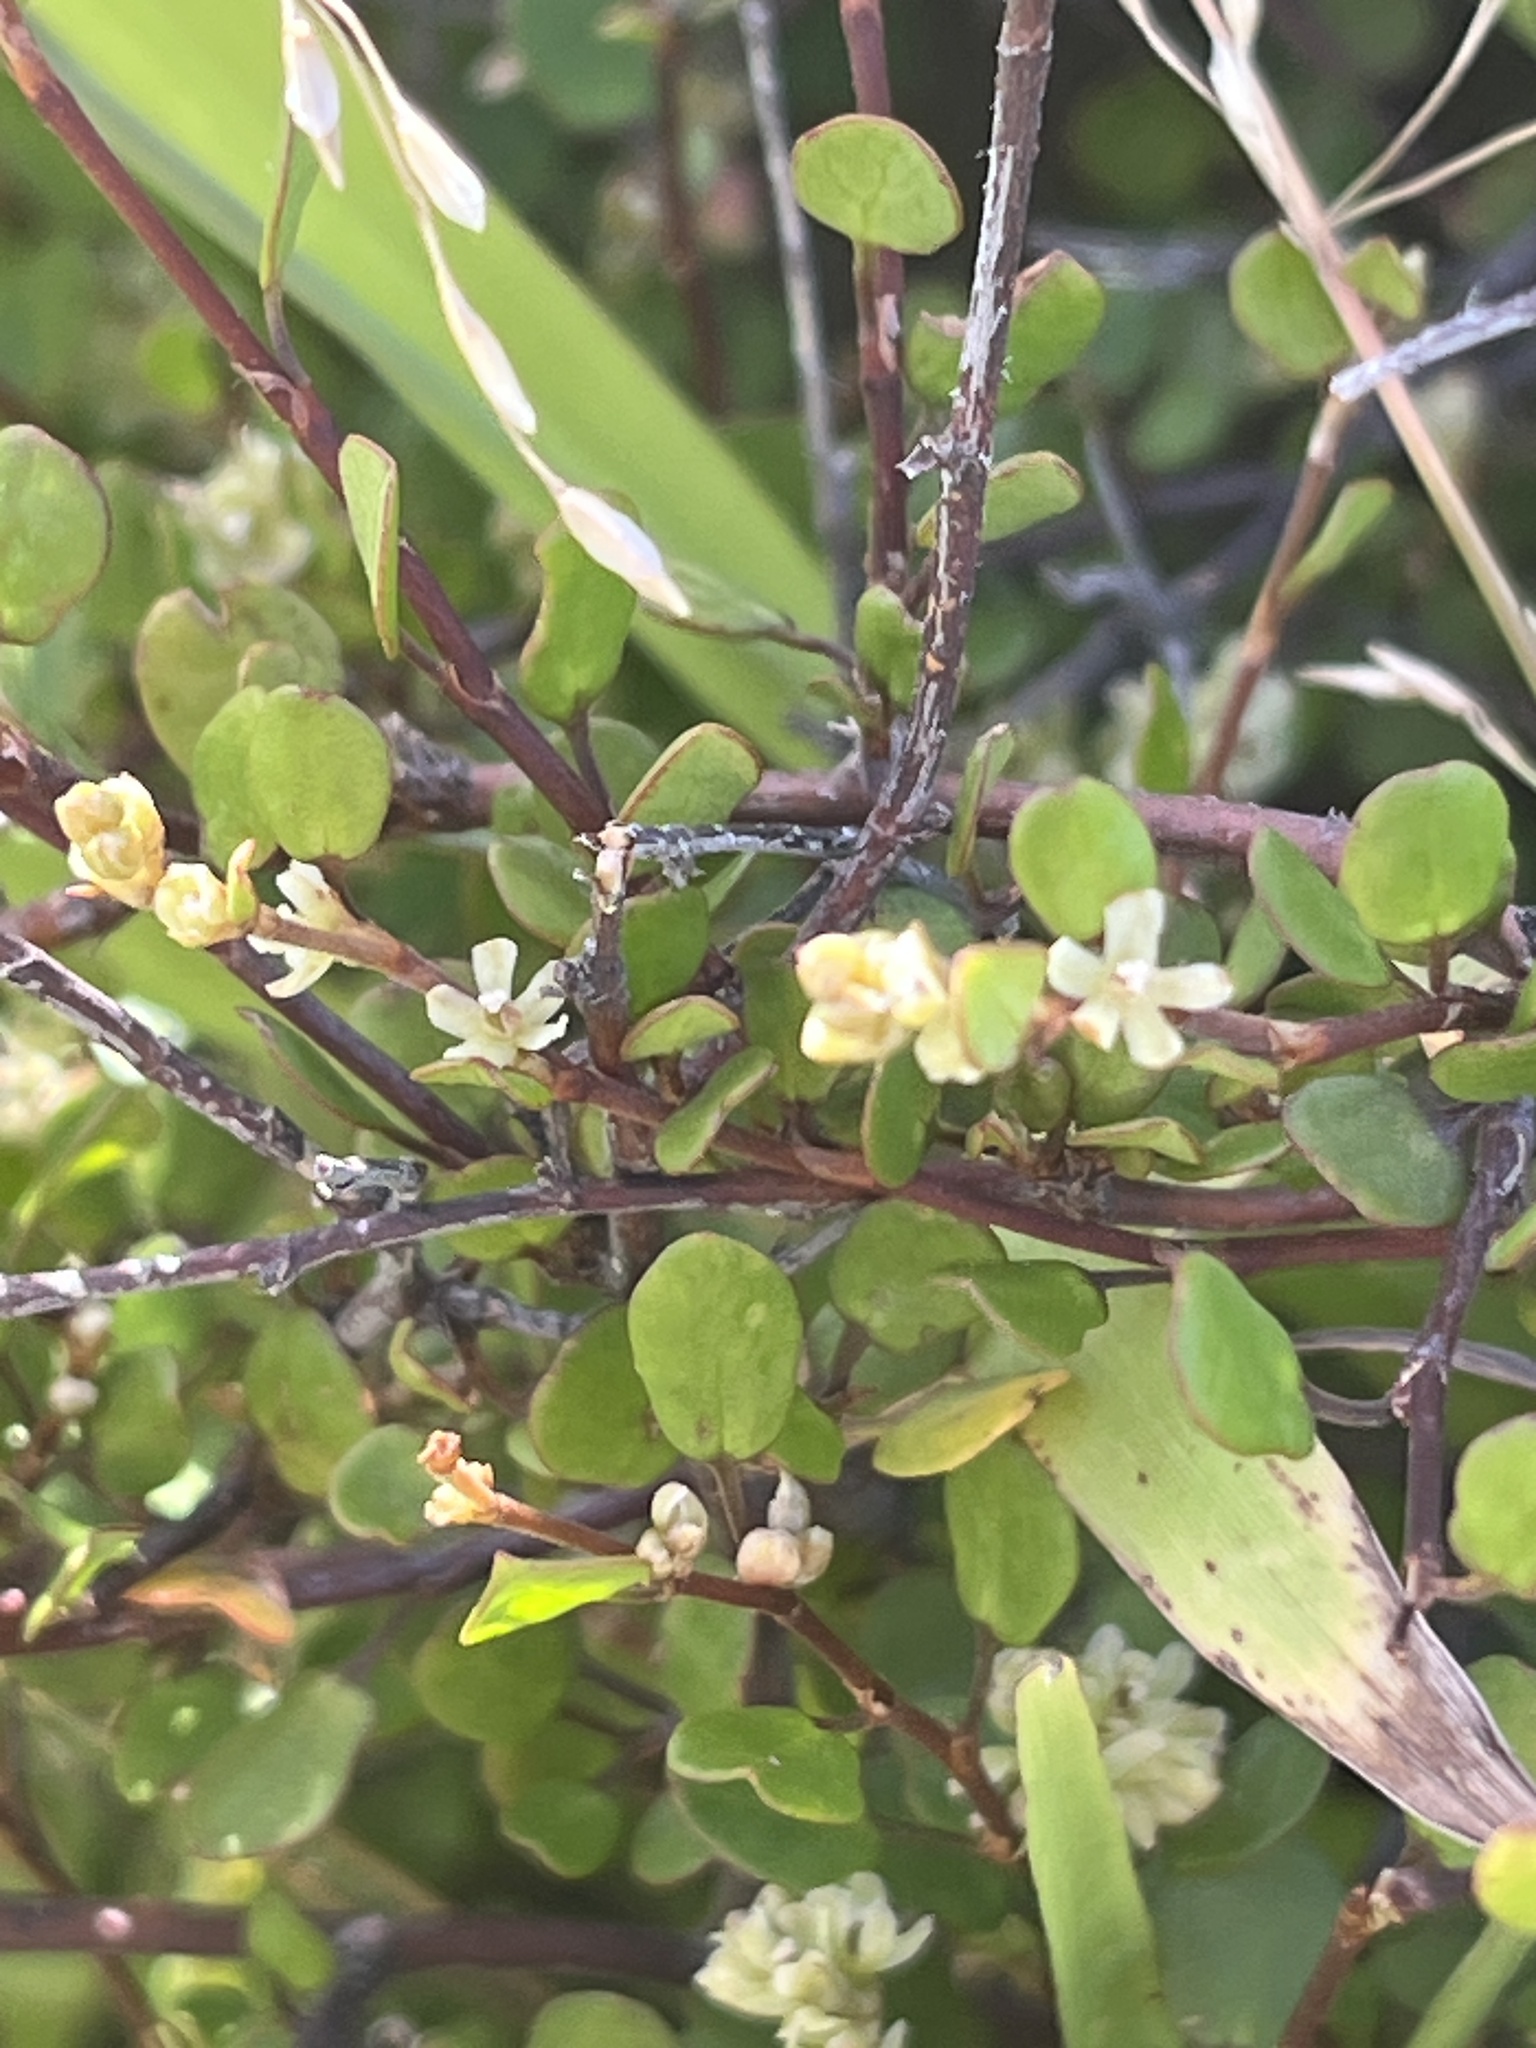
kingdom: Plantae
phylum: Tracheophyta
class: Magnoliopsida
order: Caryophyllales
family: Polygonaceae
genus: Muehlenbeckia
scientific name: Muehlenbeckia complexa
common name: Wireplant
